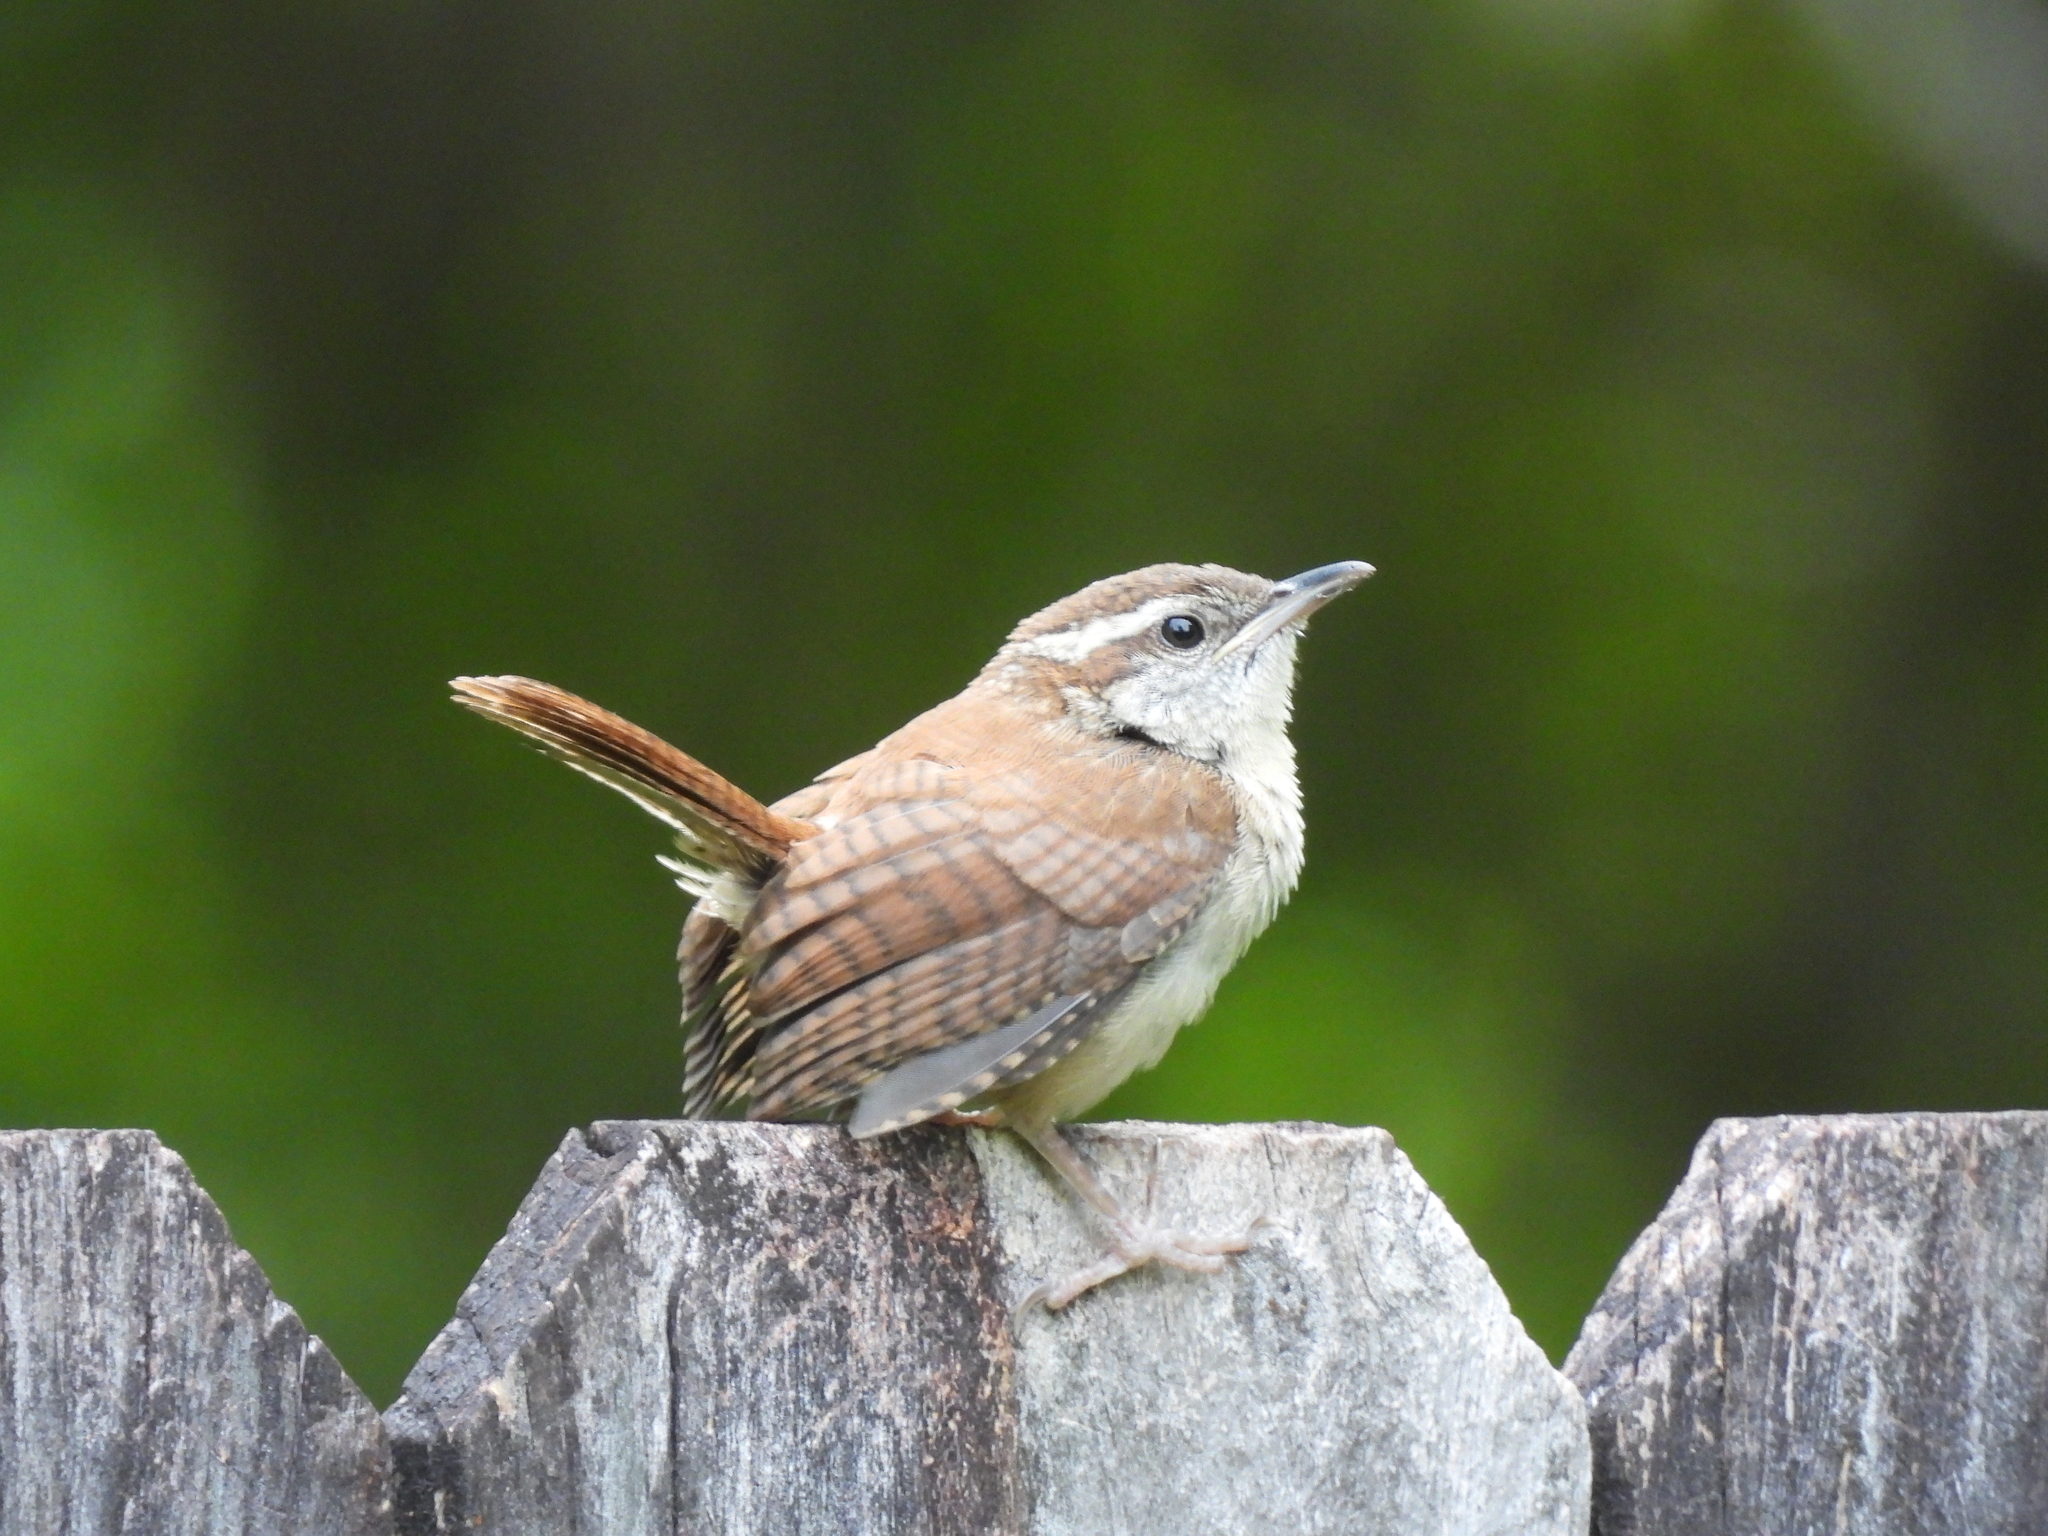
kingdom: Animalia
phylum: Chordata
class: Aves
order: Passeriformes
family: Troglodytidae
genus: Thryothorus
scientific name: Thryothorus ludovicianus
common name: Carolina wren
